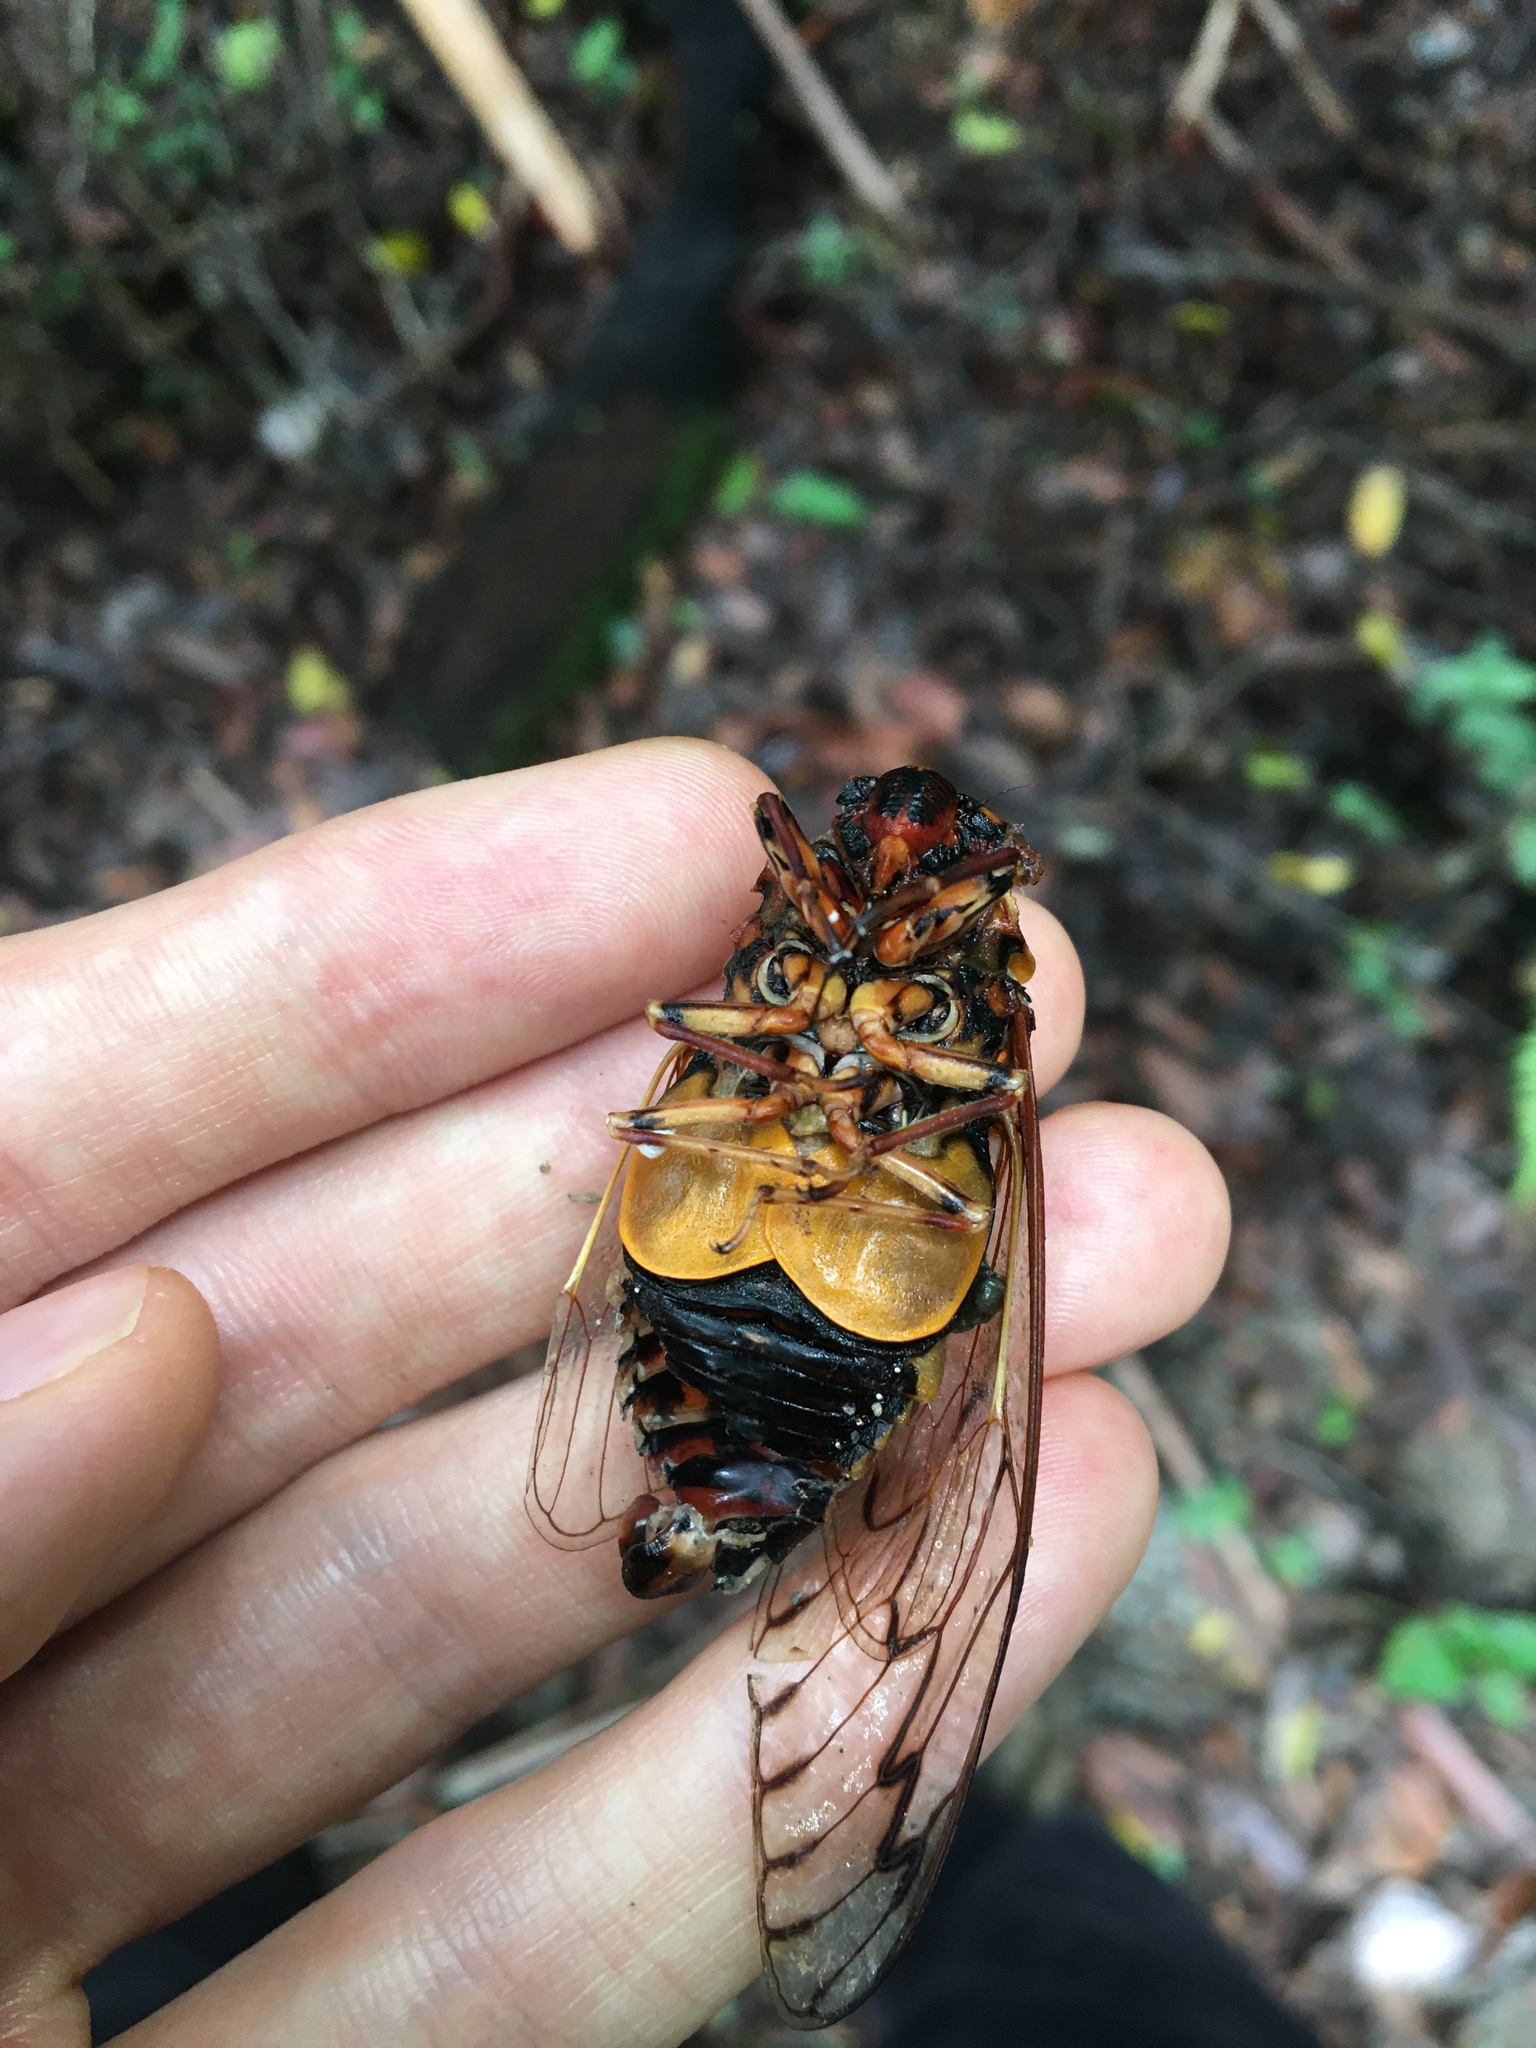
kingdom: Animalia
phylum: Arthropoda
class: Insecta
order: Hemiptera
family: Cicadidae
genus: Henicopsaltria
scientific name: Henicopsaltria eydouxii
